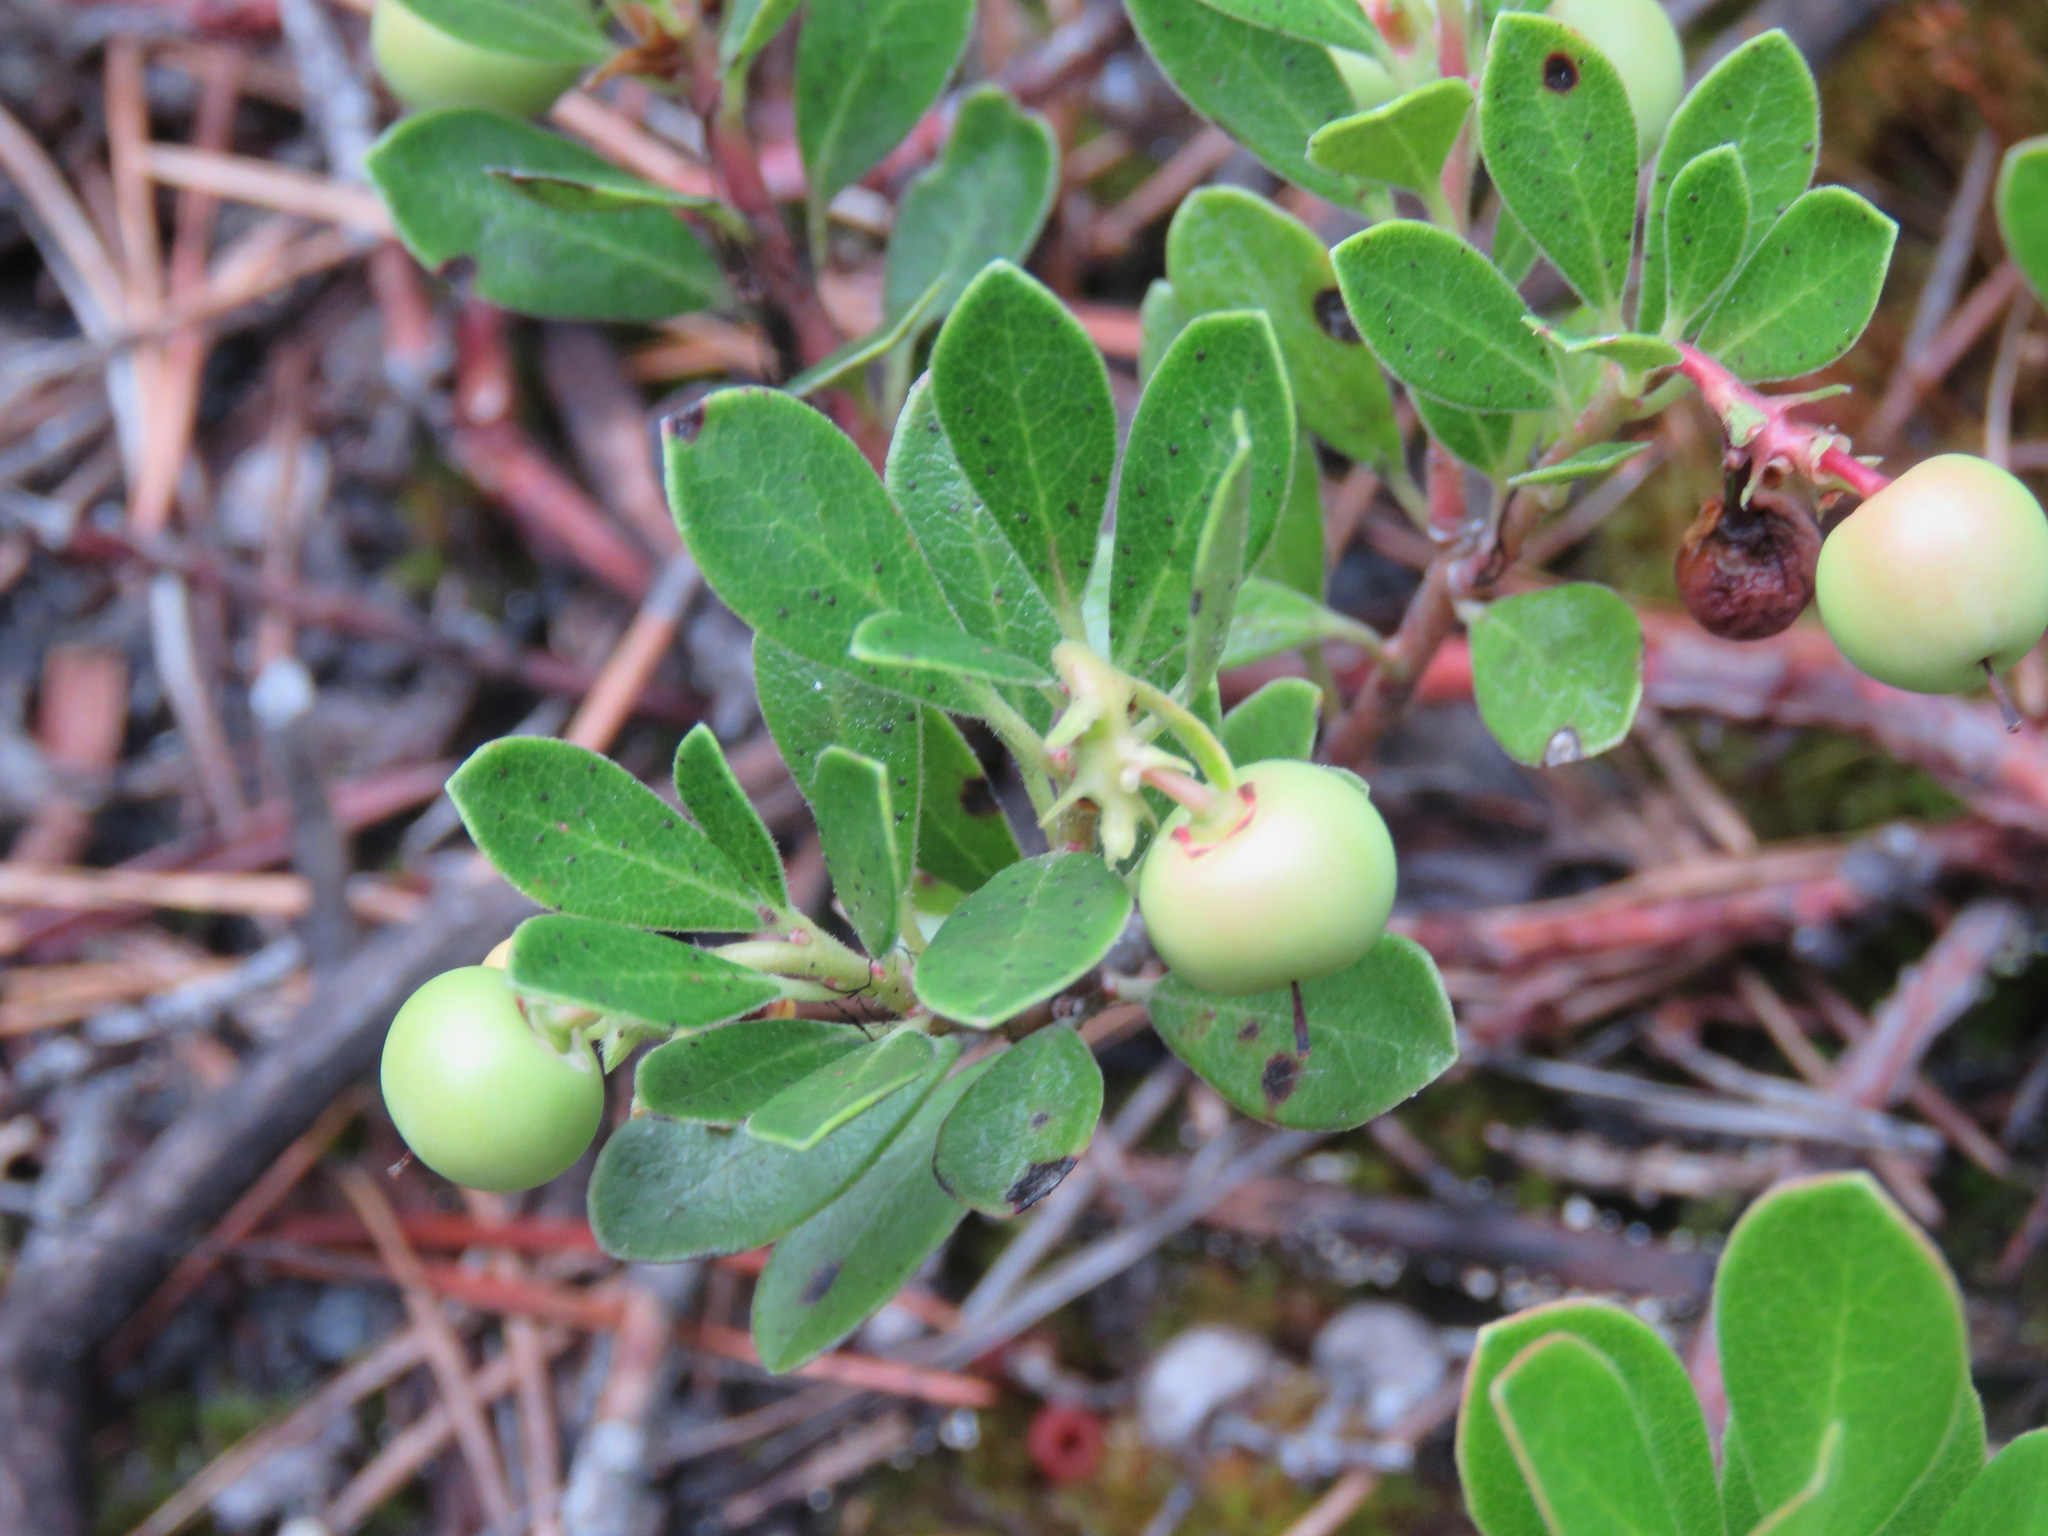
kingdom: Plantae
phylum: Tracheophyta
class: Magnoliopsida
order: Ericales
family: Ericaceae
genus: Arctostaphylos
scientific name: Arctostaphylos uva-ursi
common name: Bearberry
